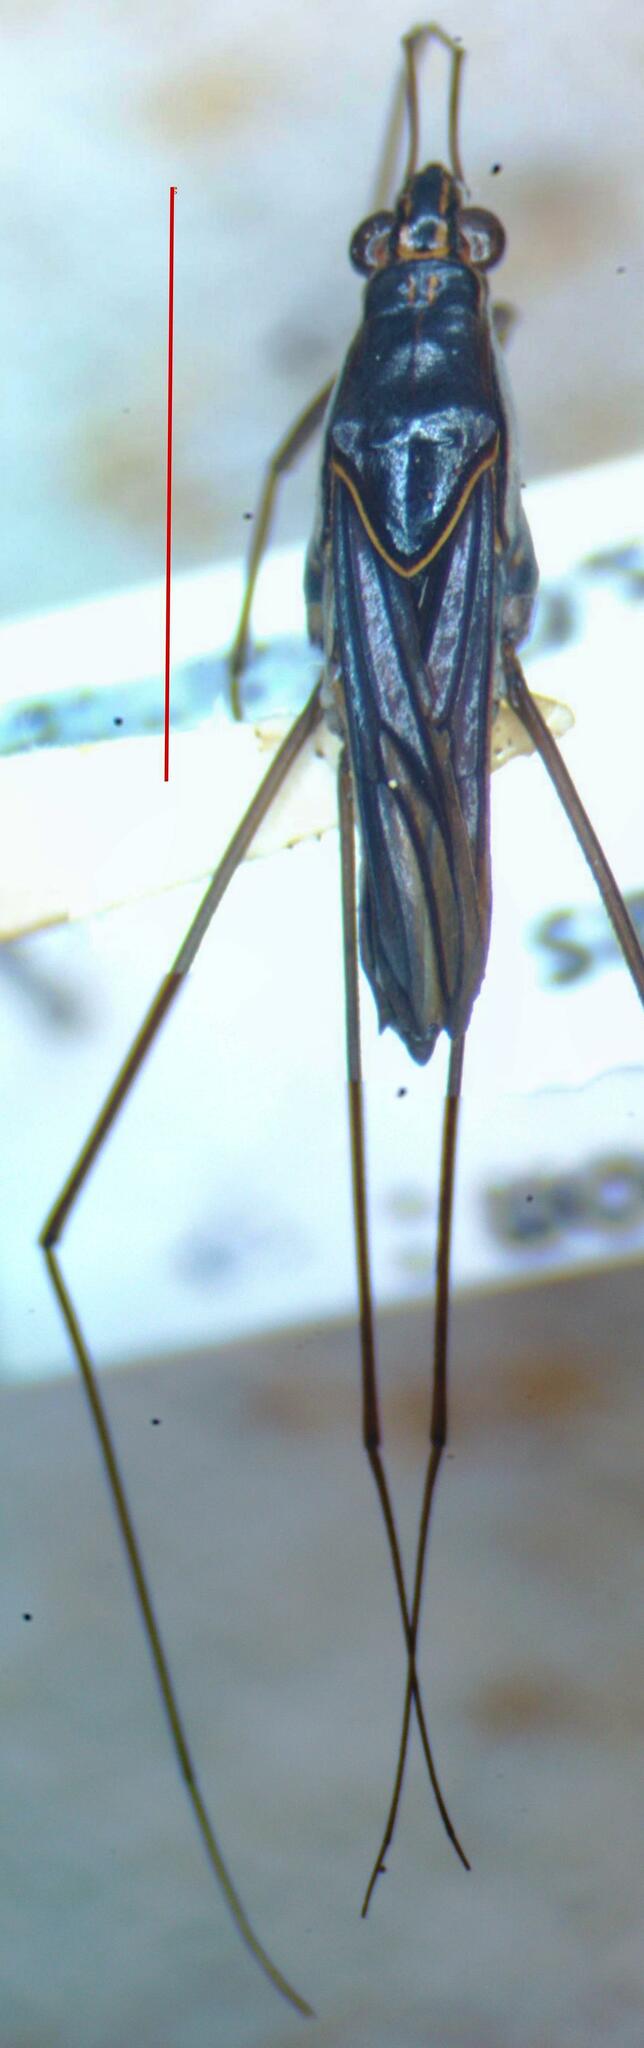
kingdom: Animalia
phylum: Arthropoda
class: Insecta
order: Hemiptera
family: Gerridae
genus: Limnogonus
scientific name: Limnogonus
